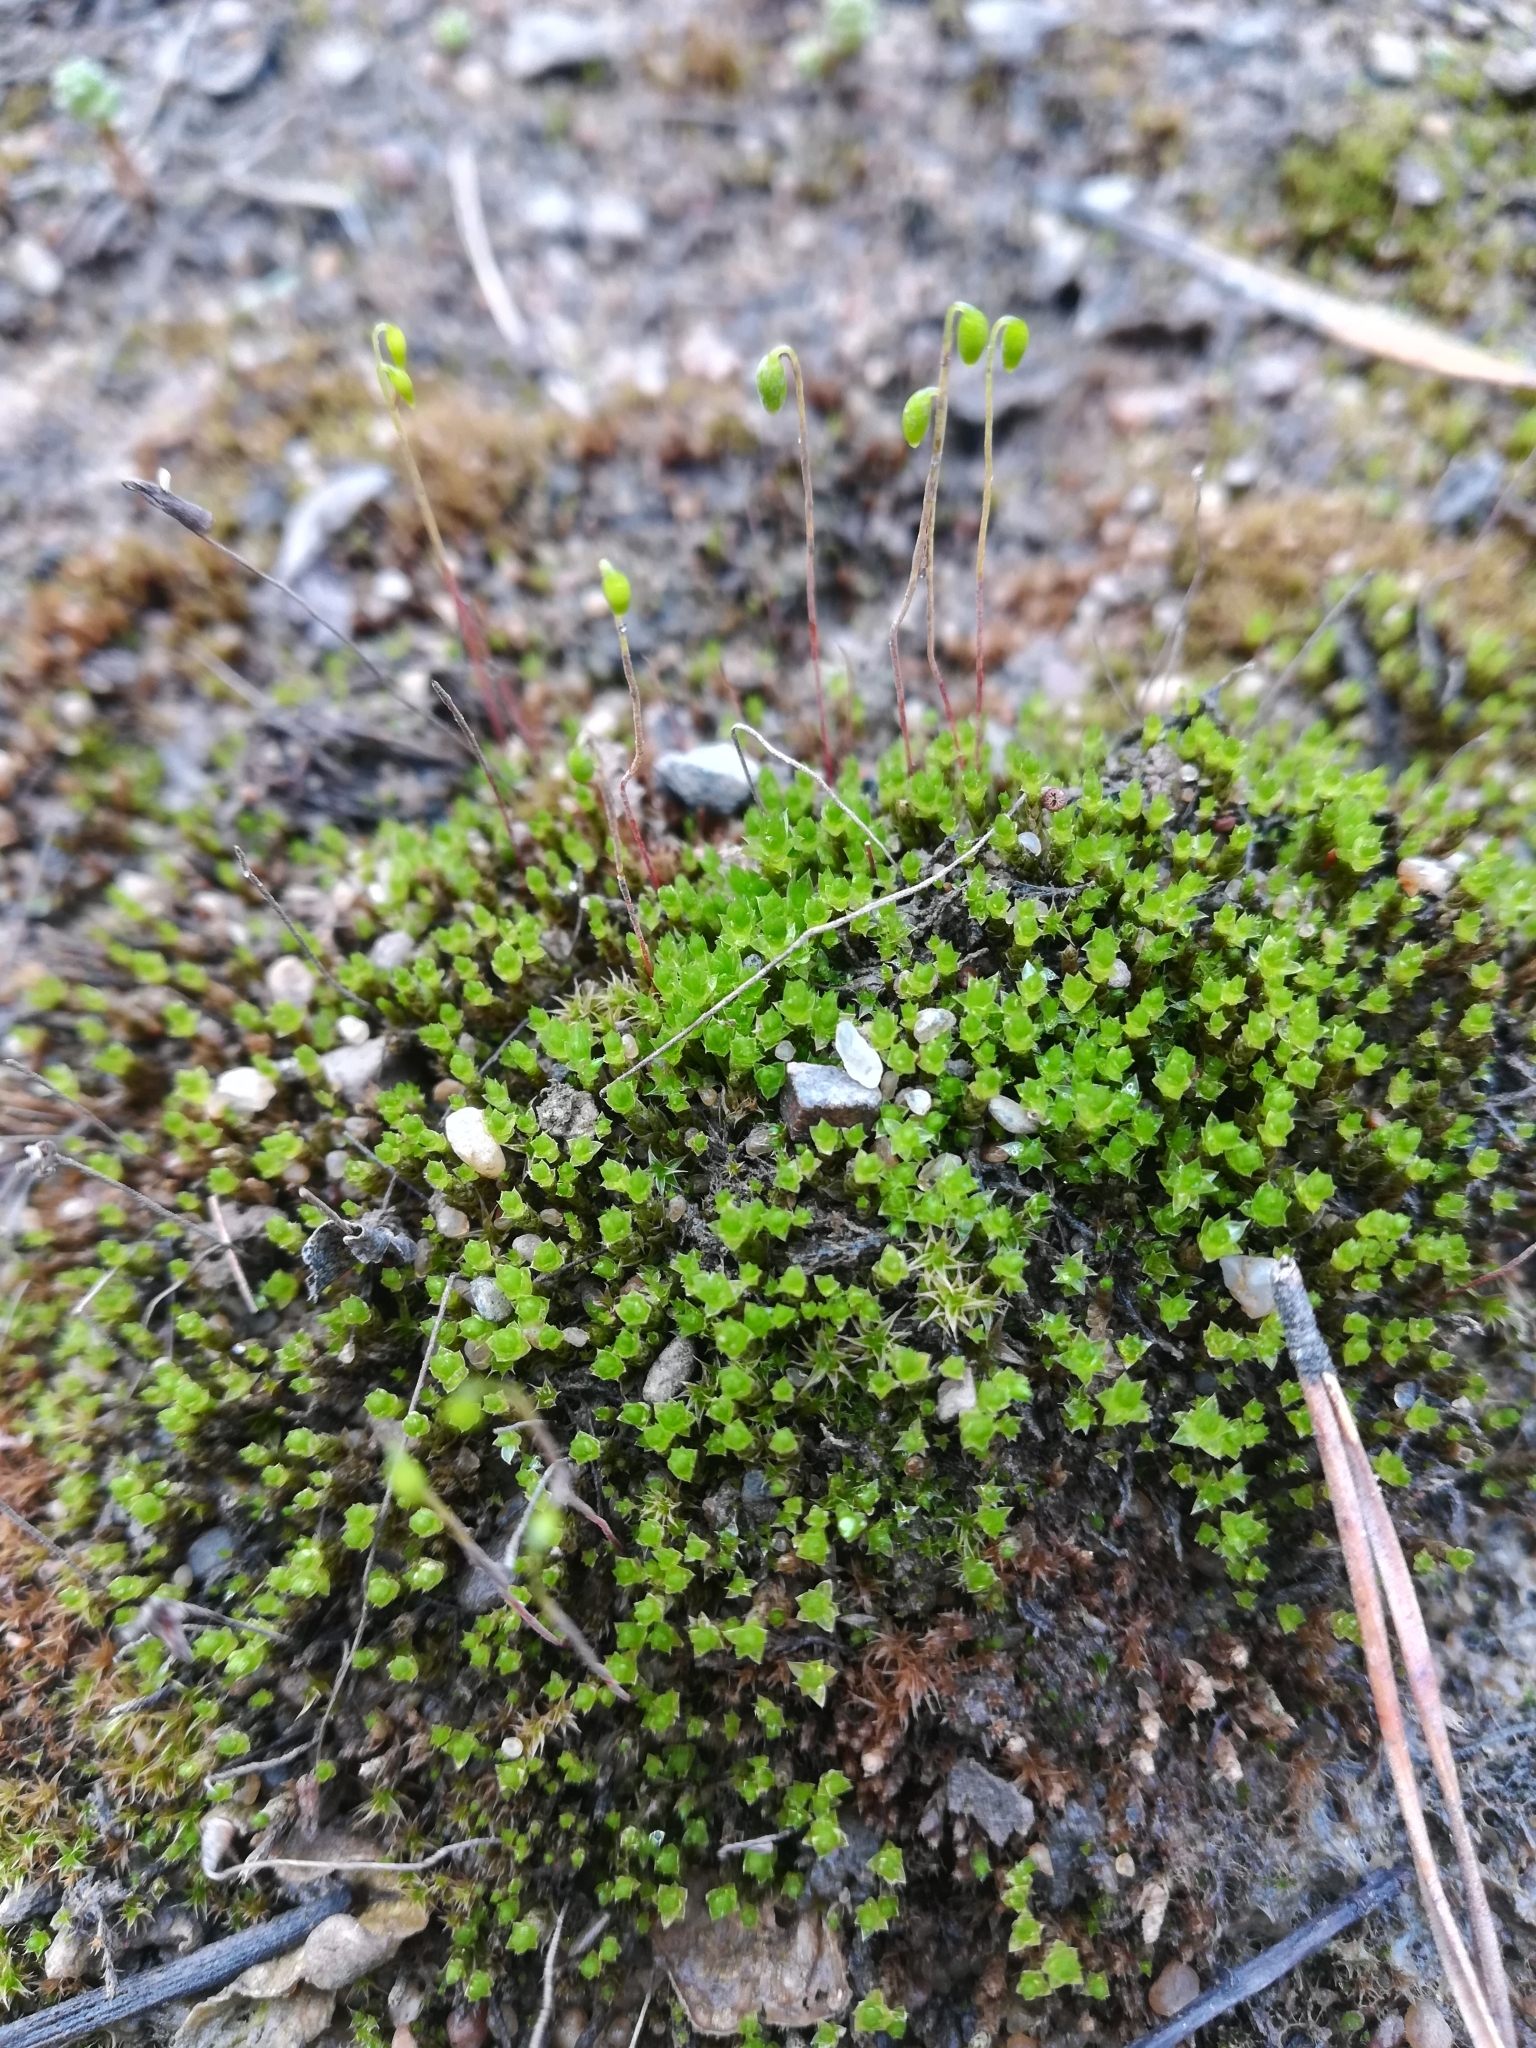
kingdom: Plantae
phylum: Bryophyta
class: Bryopsida
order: Bryales
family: Mniaceae
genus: Pohlia
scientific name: Pohlia nutans
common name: Nodding thread-moss
